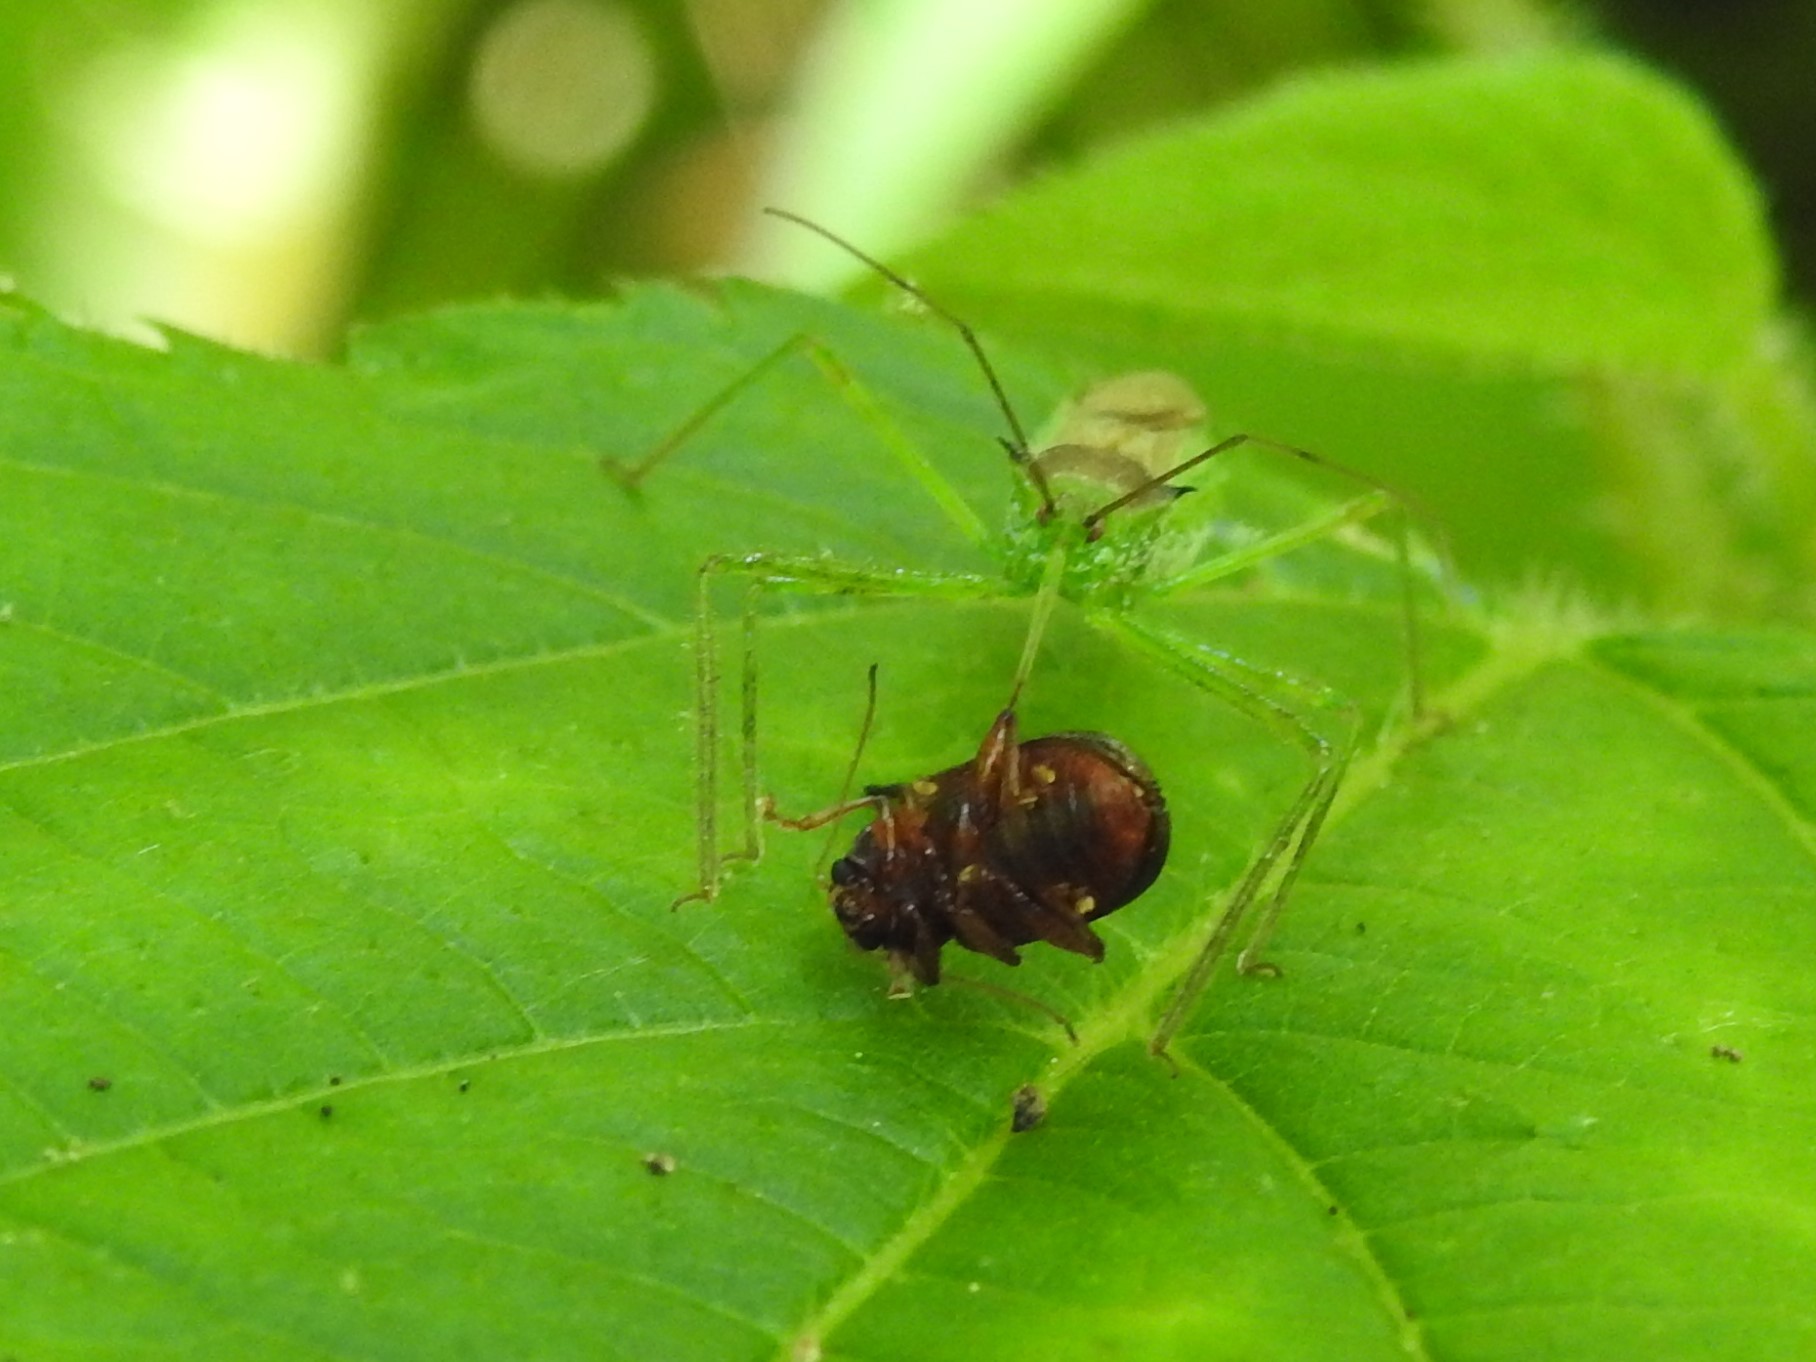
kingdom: Animalia
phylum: Arthropoda
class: Insecta
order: Hemiptera
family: Reduviidae
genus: Zelus
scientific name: Zelus luridus
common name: Pale green assassin bug
